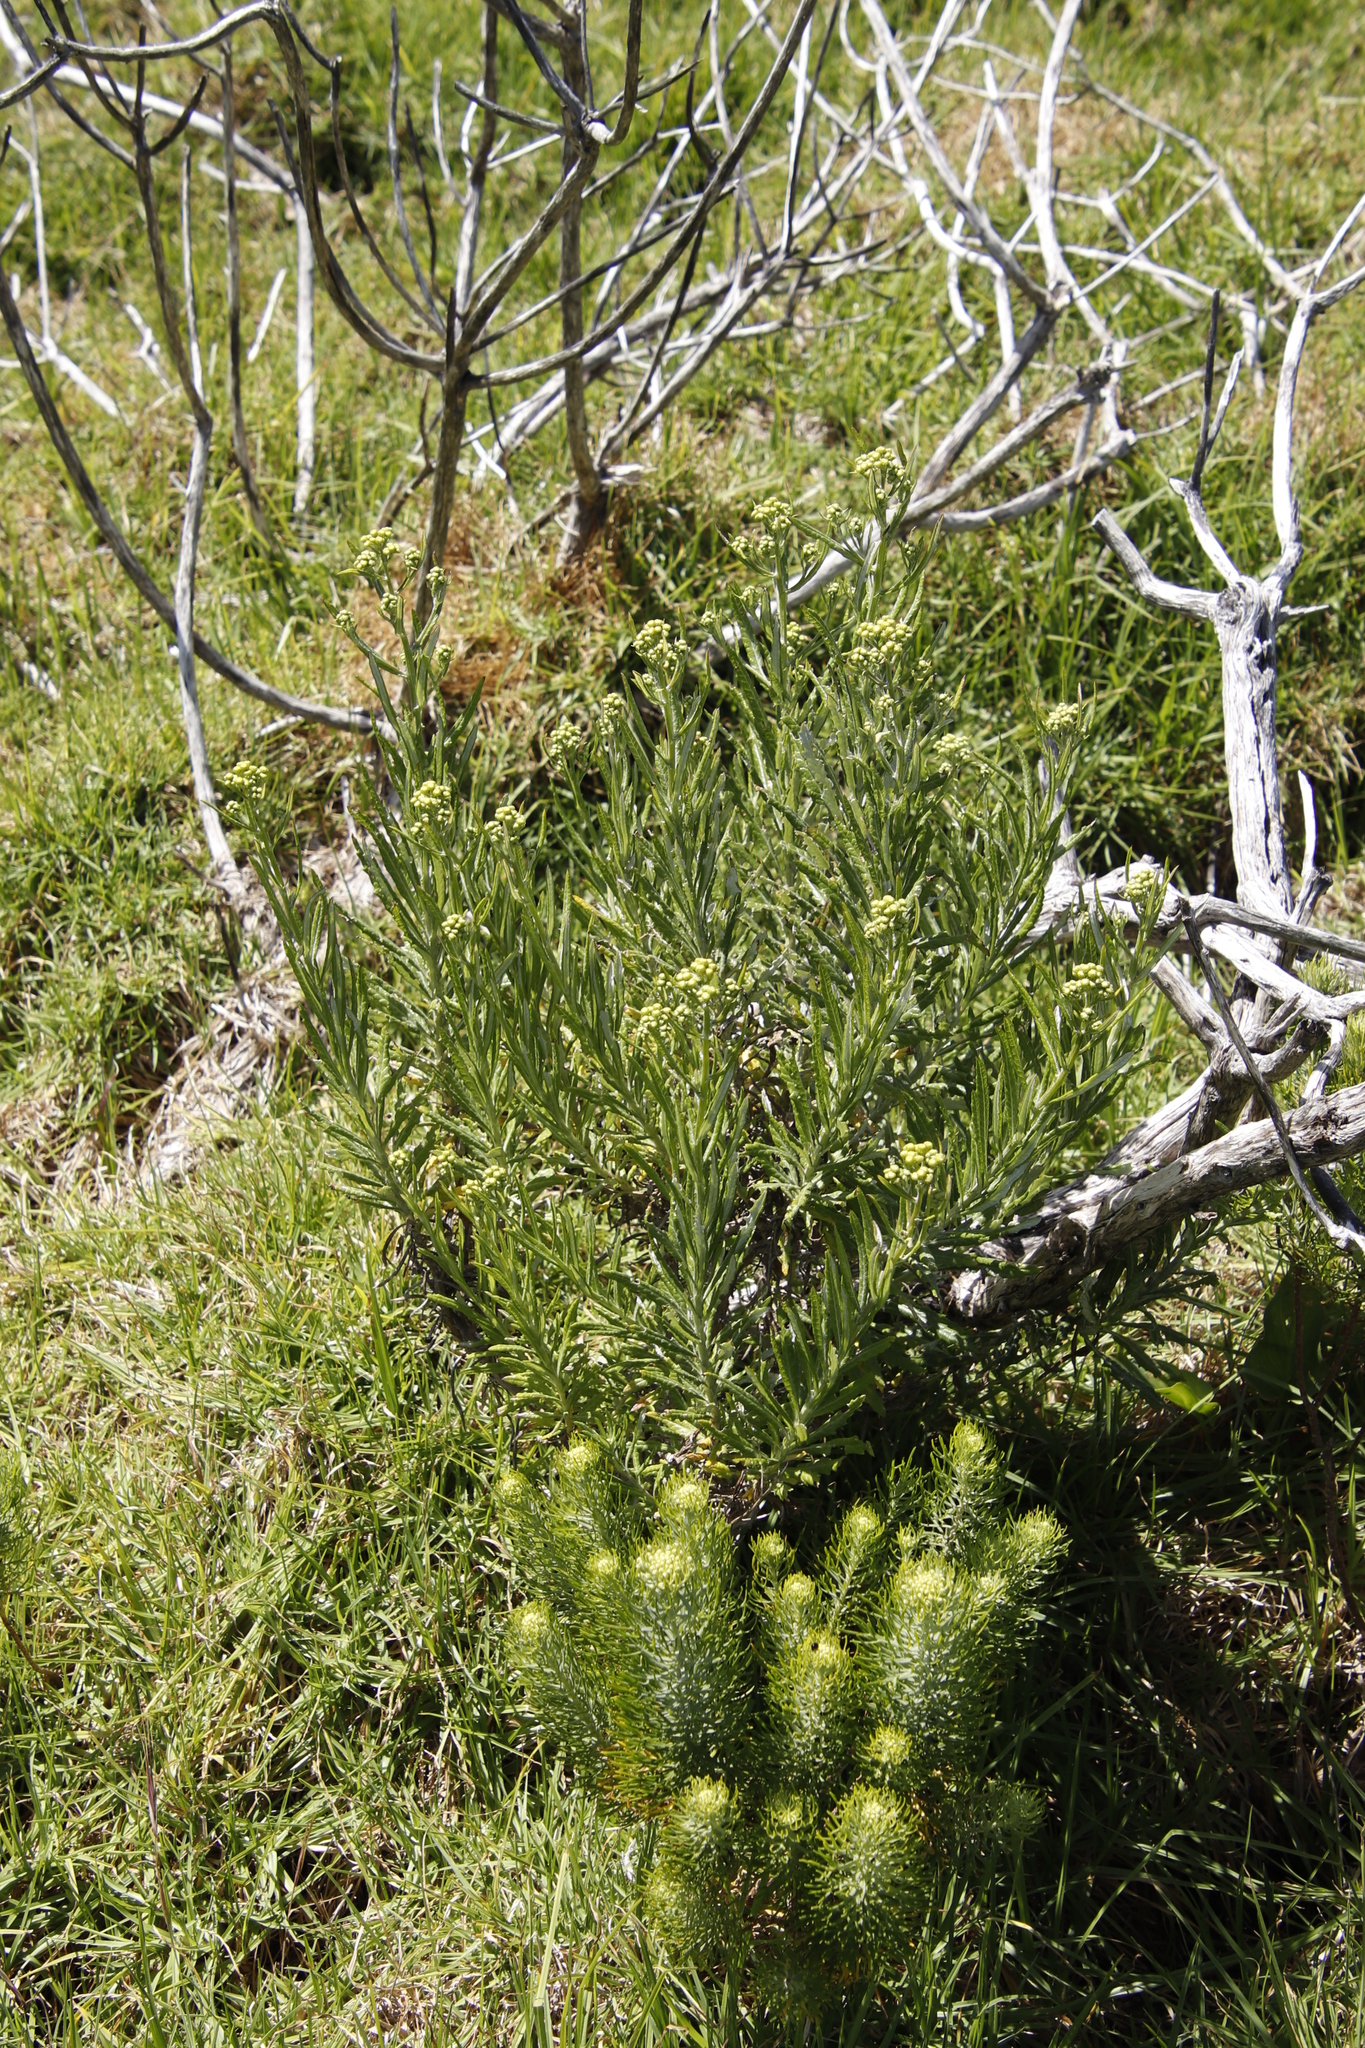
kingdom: Plantae
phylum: Tracheophyta
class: Magnoliopsida
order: Asterales
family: Asteraceae
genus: Senecio
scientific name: Senecio pterophorus
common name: Shoddy ragwort
